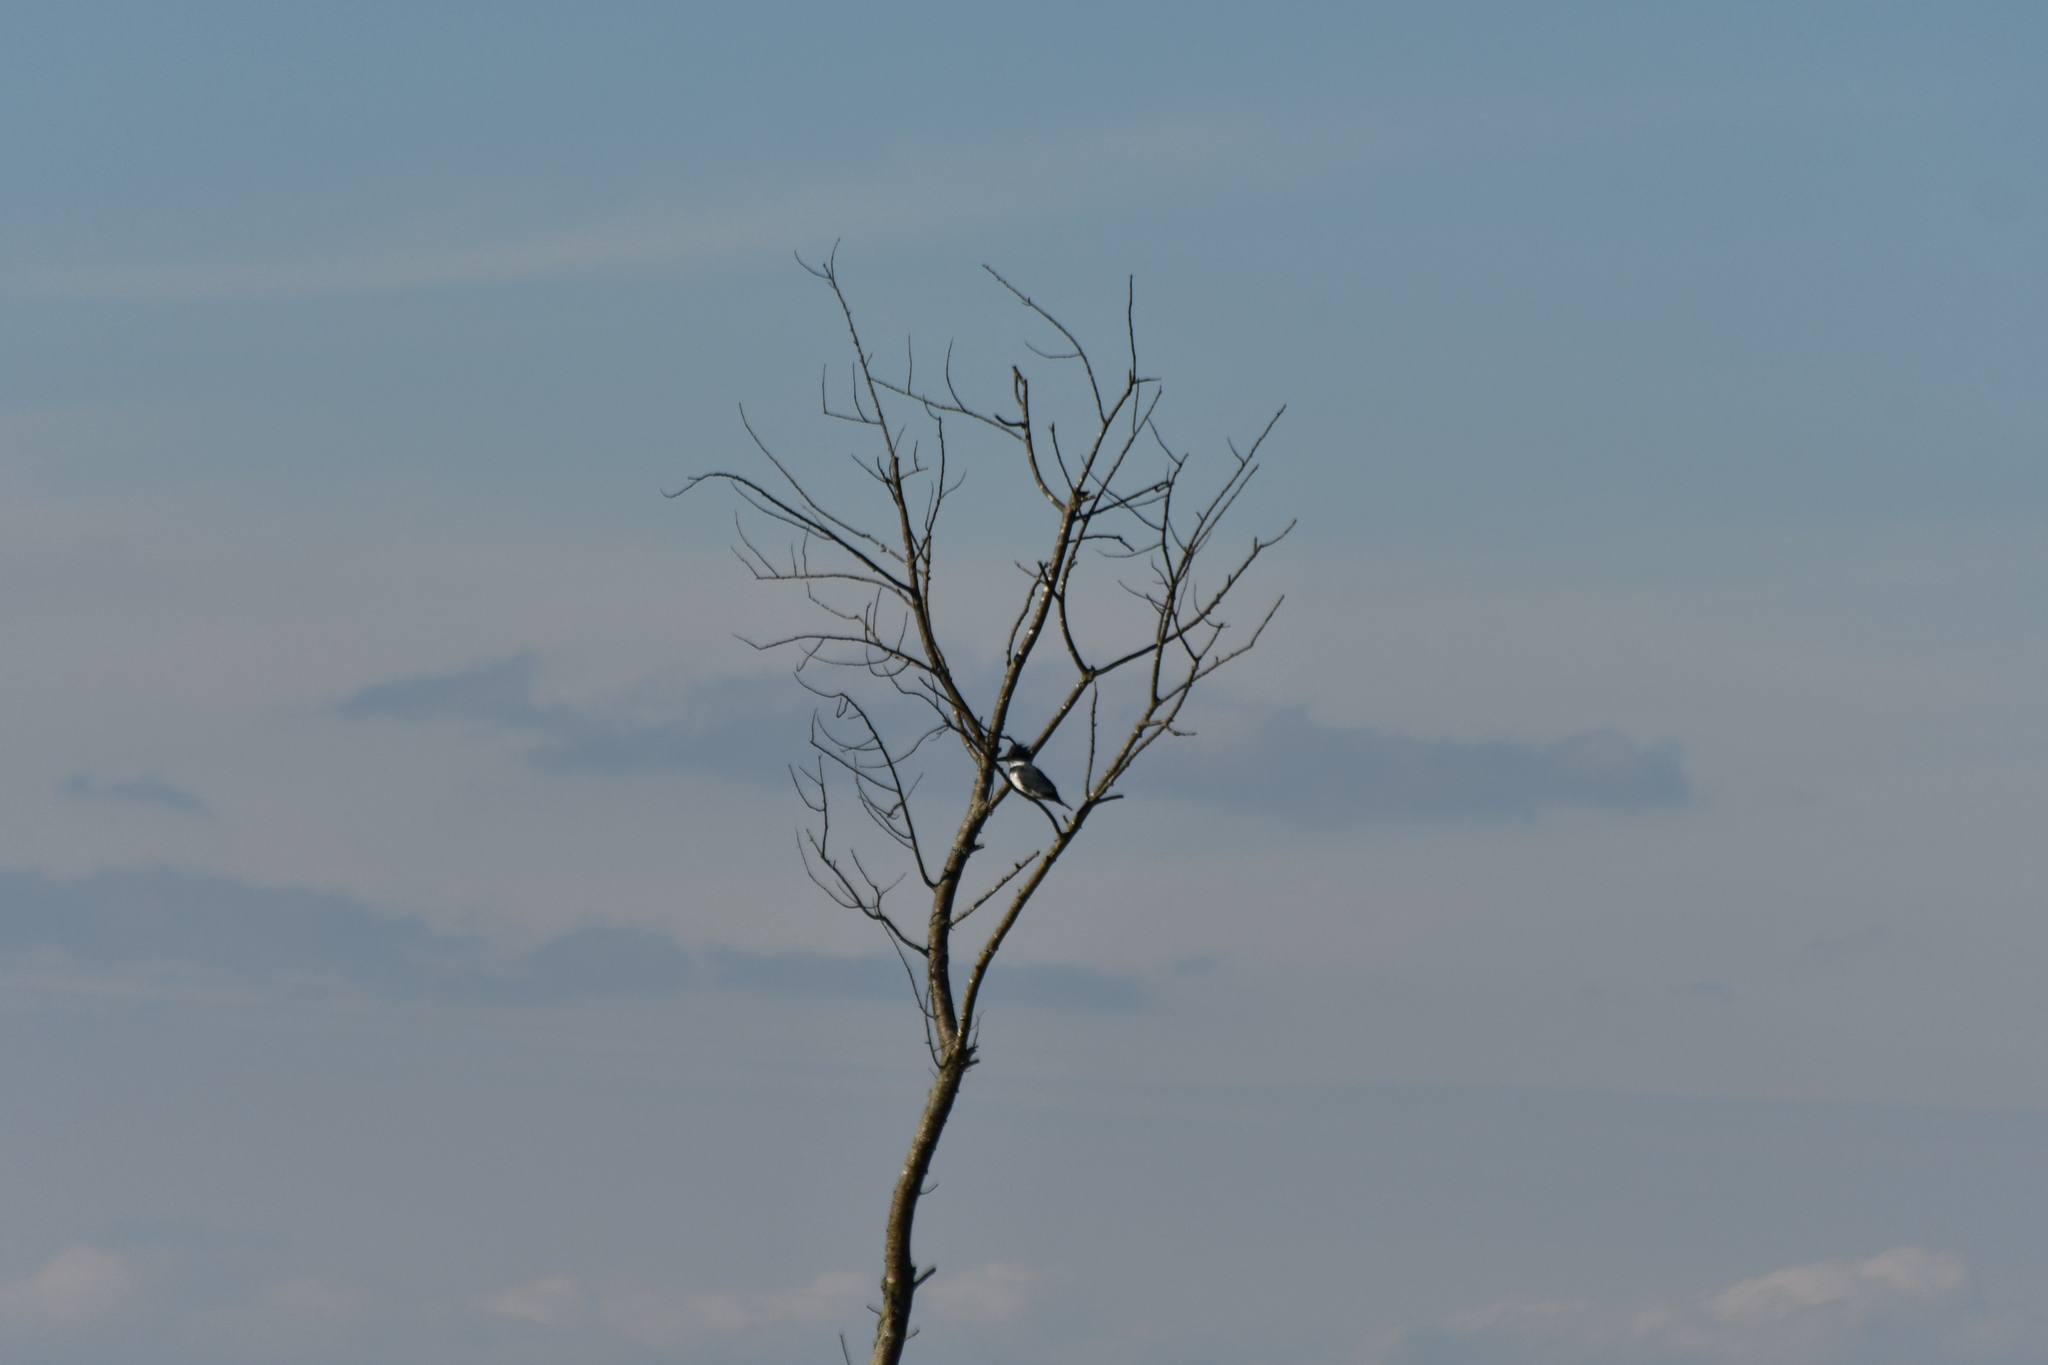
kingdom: Animalia
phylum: Chordata
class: Aves
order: Coraciiformes
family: Alcedinidae
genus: Megaceryle
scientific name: Megaceryle alcyon
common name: Belted kingfisher
